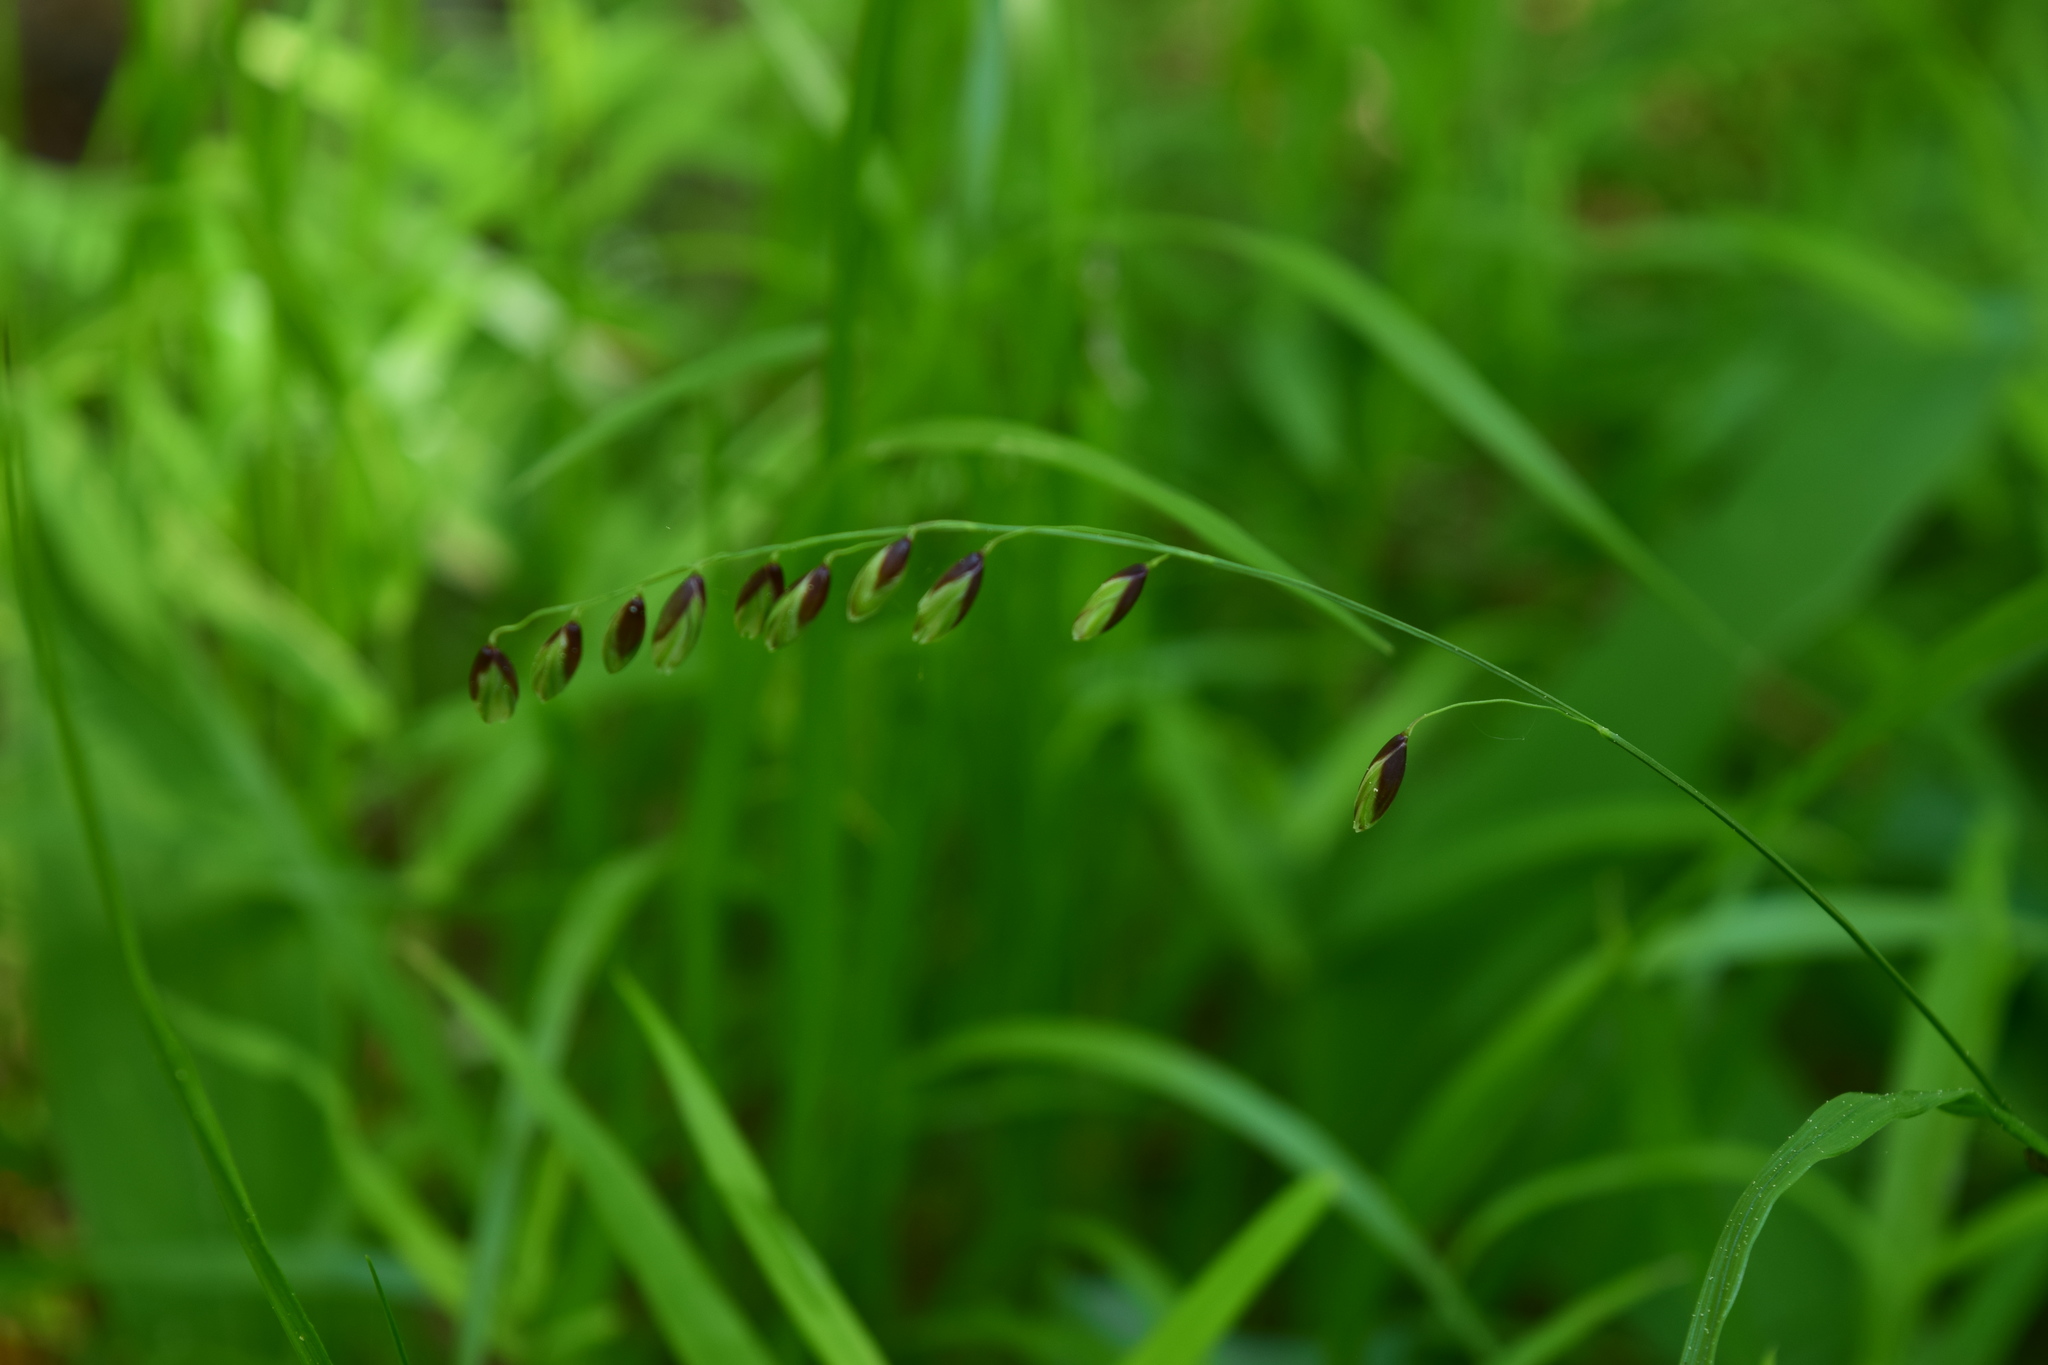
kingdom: Plantae
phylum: Tracheophyta
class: Liliopsida
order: Poales
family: Poaceae
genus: Melica
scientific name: Melica nutans
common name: Mountain melick
